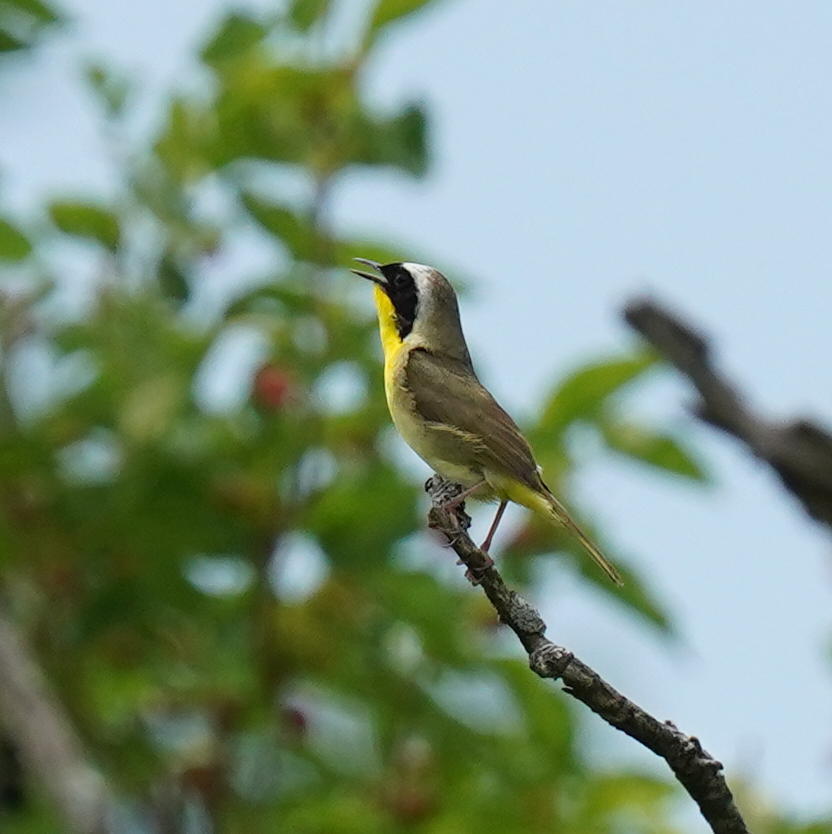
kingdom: Animalia
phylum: Chordata
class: Aves
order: Passeriformes
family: Parulidae
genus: Geothlypis
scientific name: Geothlypis trichas
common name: Common yellowthroat
